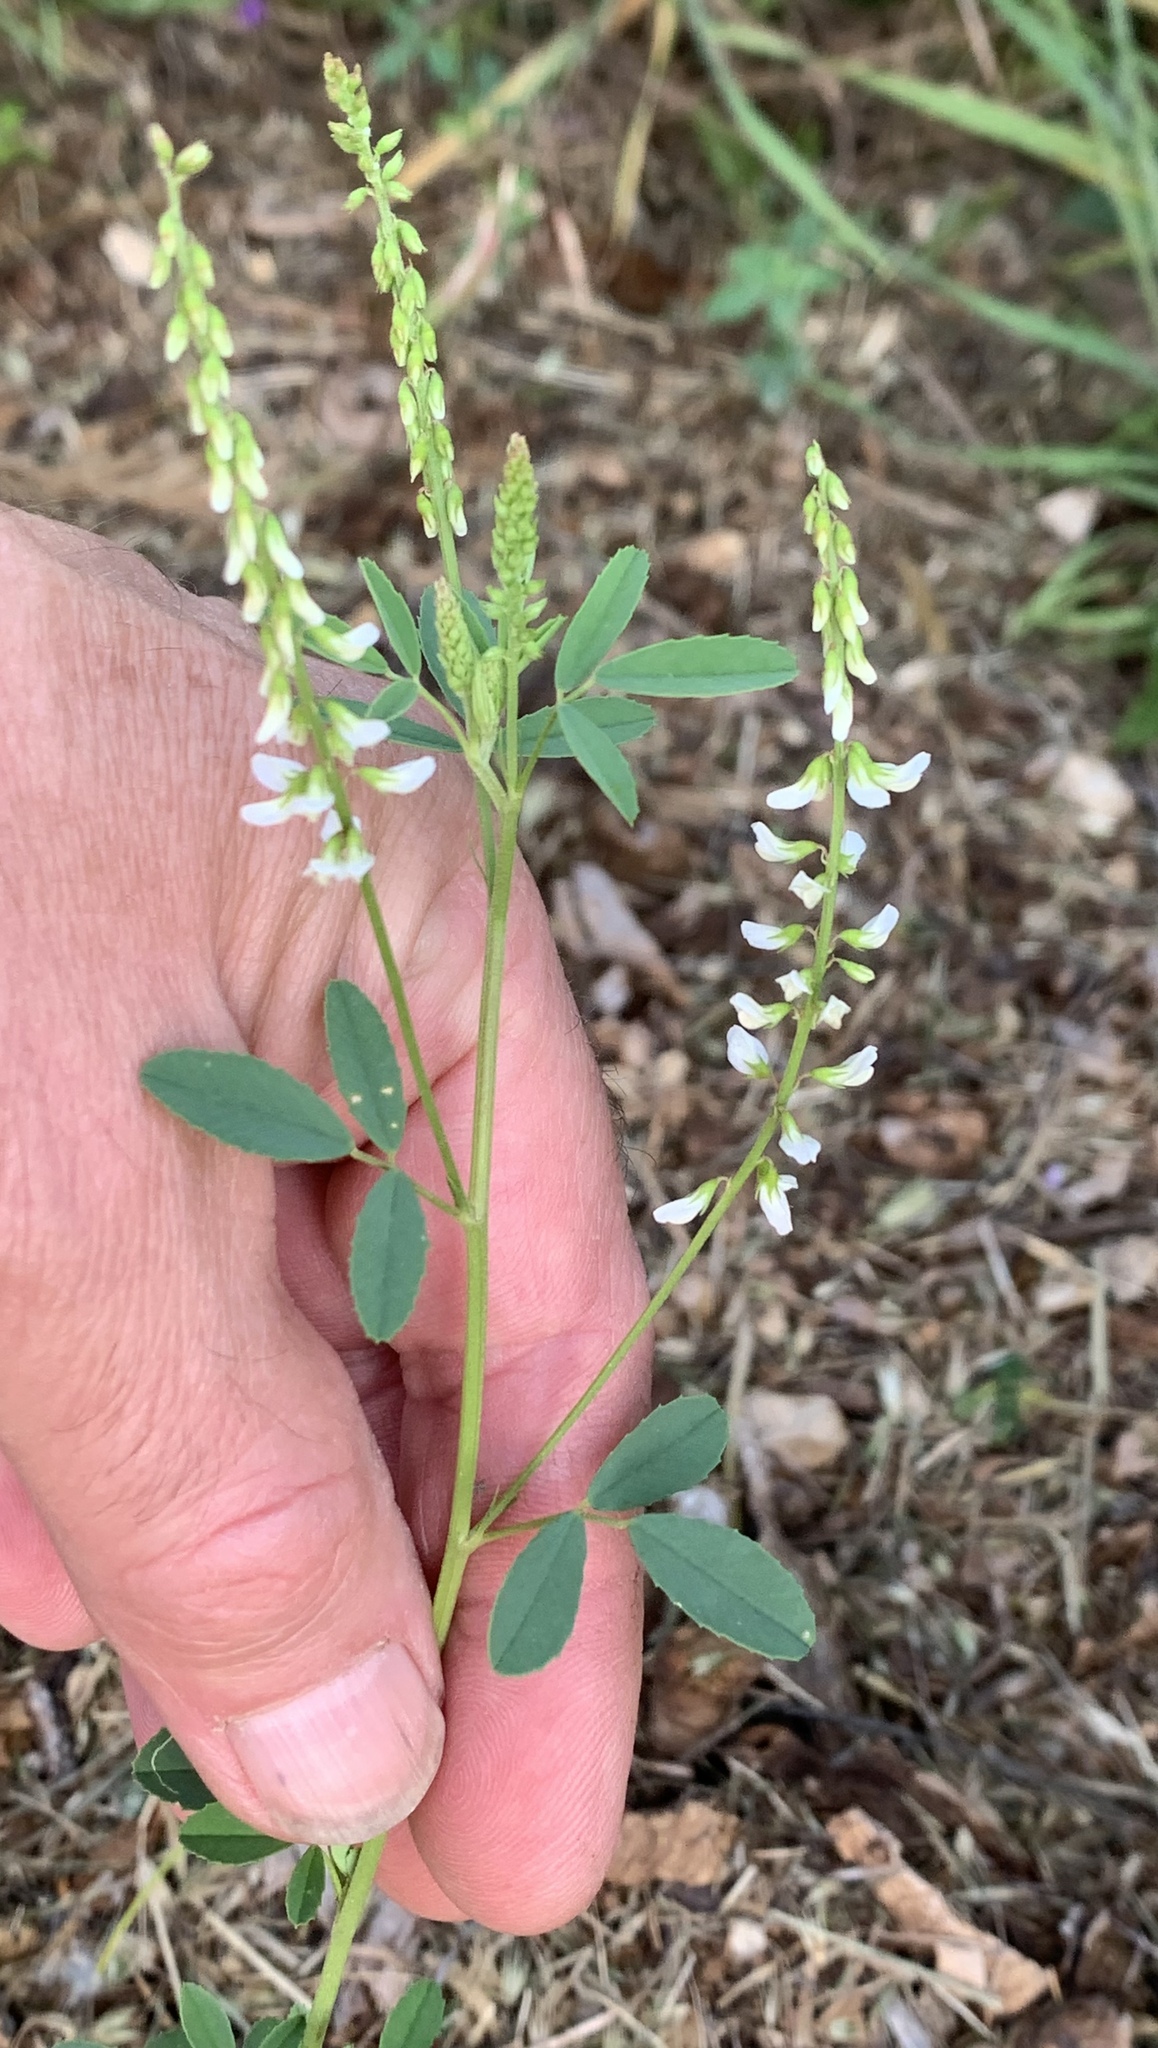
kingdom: Plantae
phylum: Tracheophyta
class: Magnoliopsida
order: Fabales
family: Fabaceae
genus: Melilotus
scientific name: Melilotus albus
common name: White melilot
